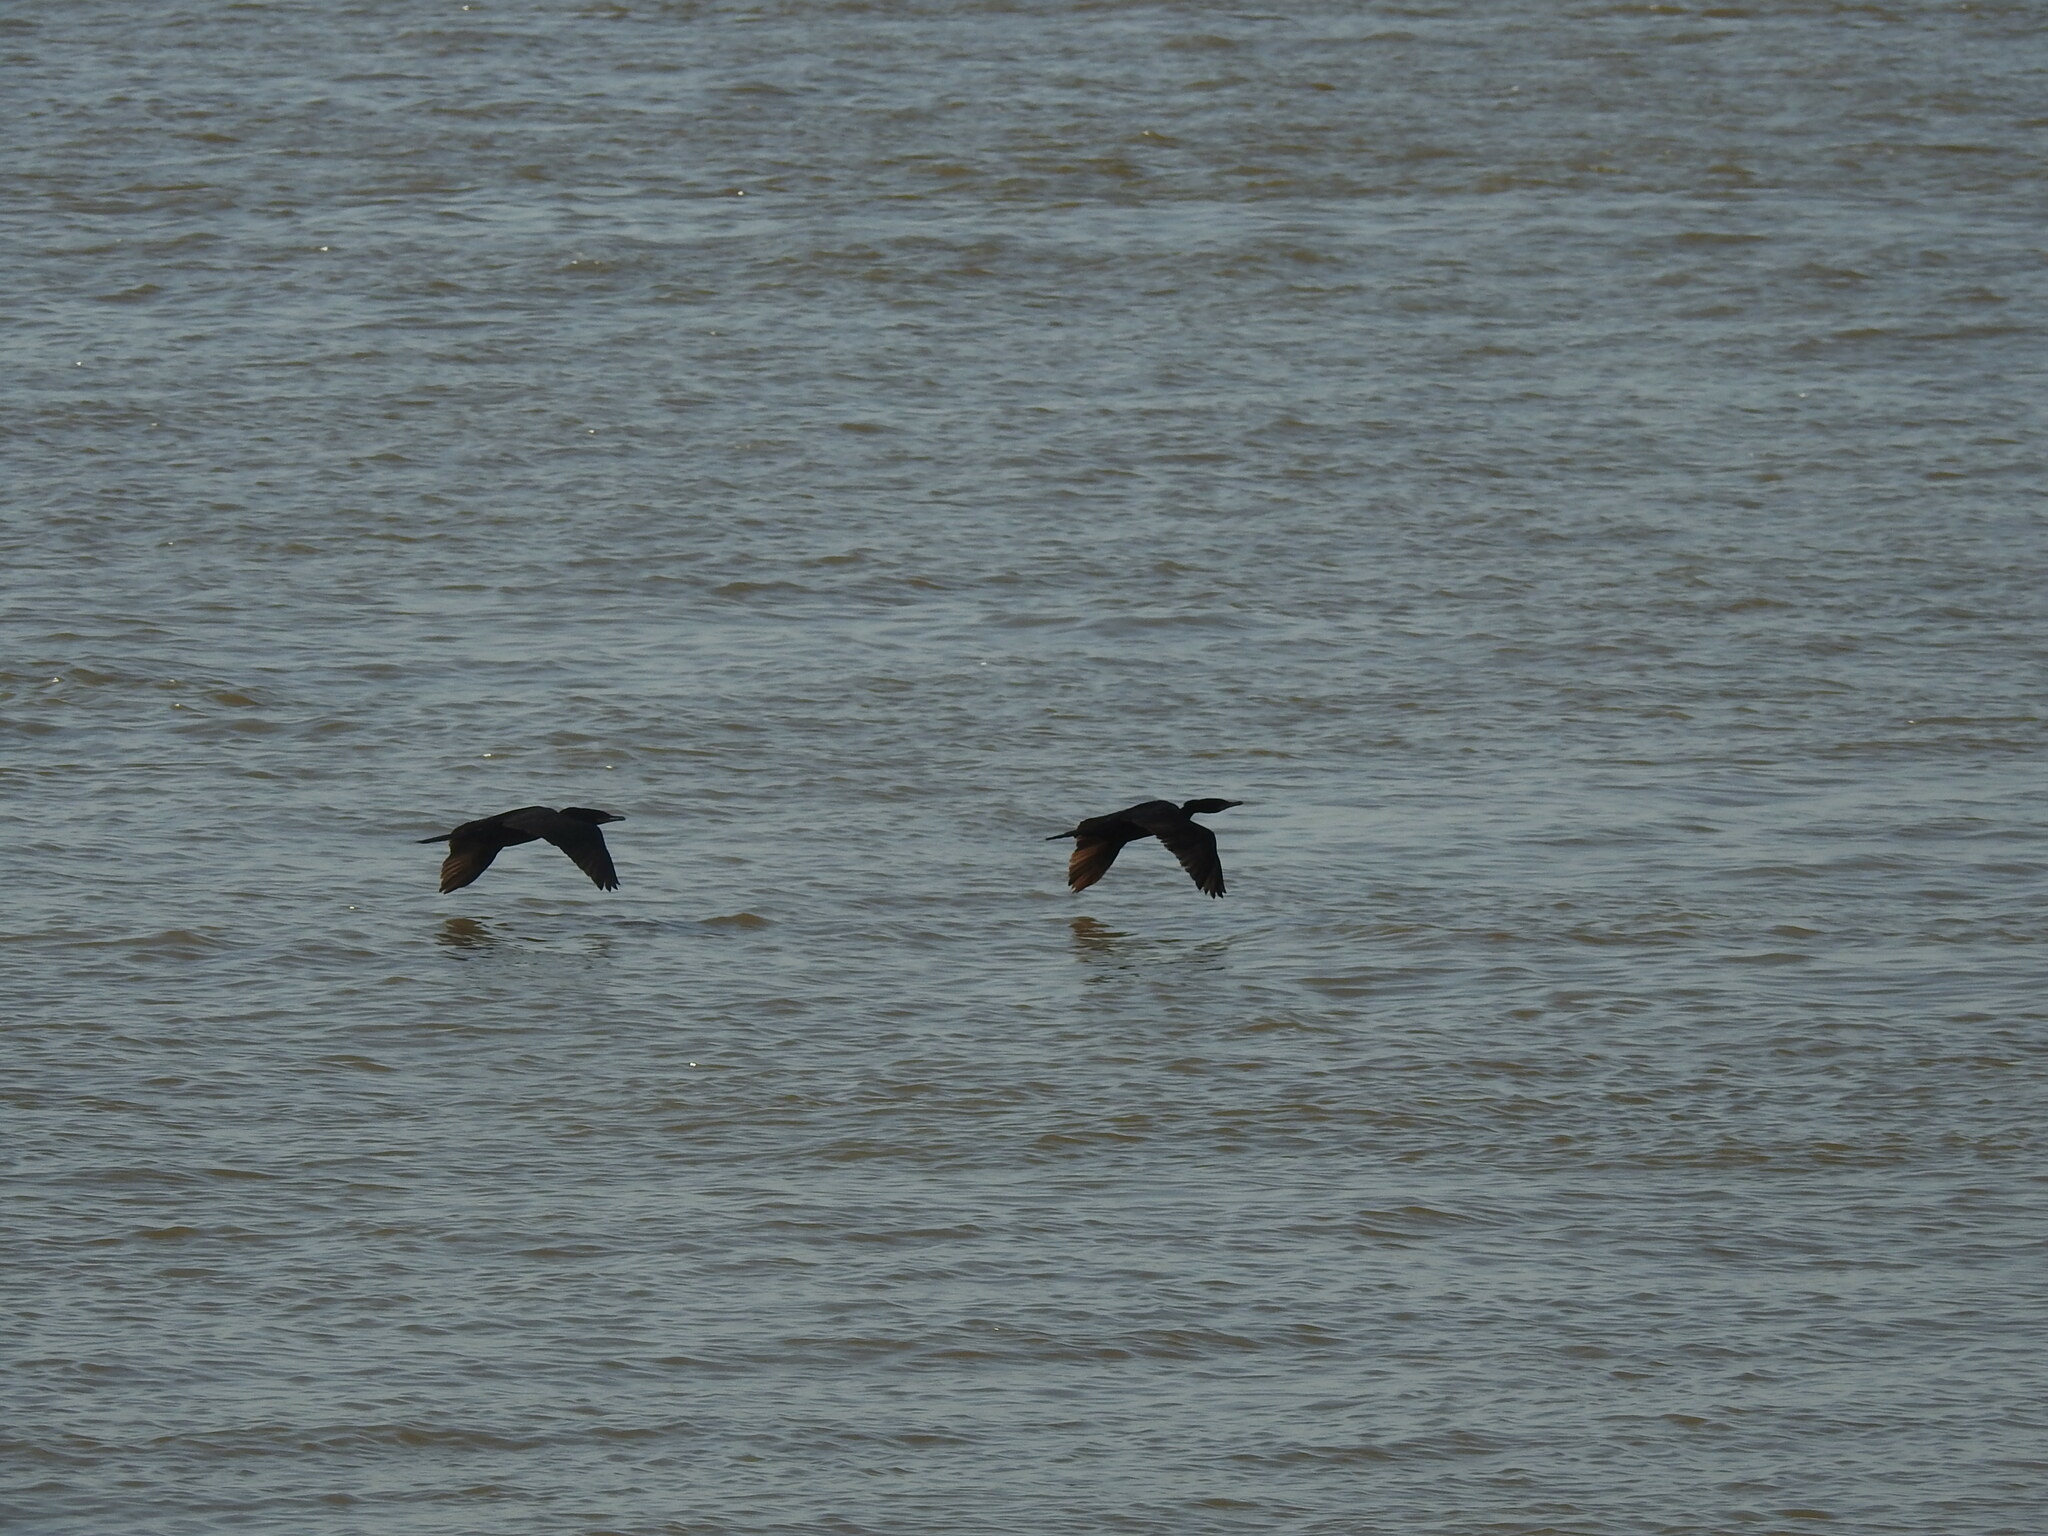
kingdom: Animalia
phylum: Chordata
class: Aves
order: Suliformes
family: Phalacrocoracidae
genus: Phalacrocorax
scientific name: Phalacrocorax brasilianus
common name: Neotropic cormorant
